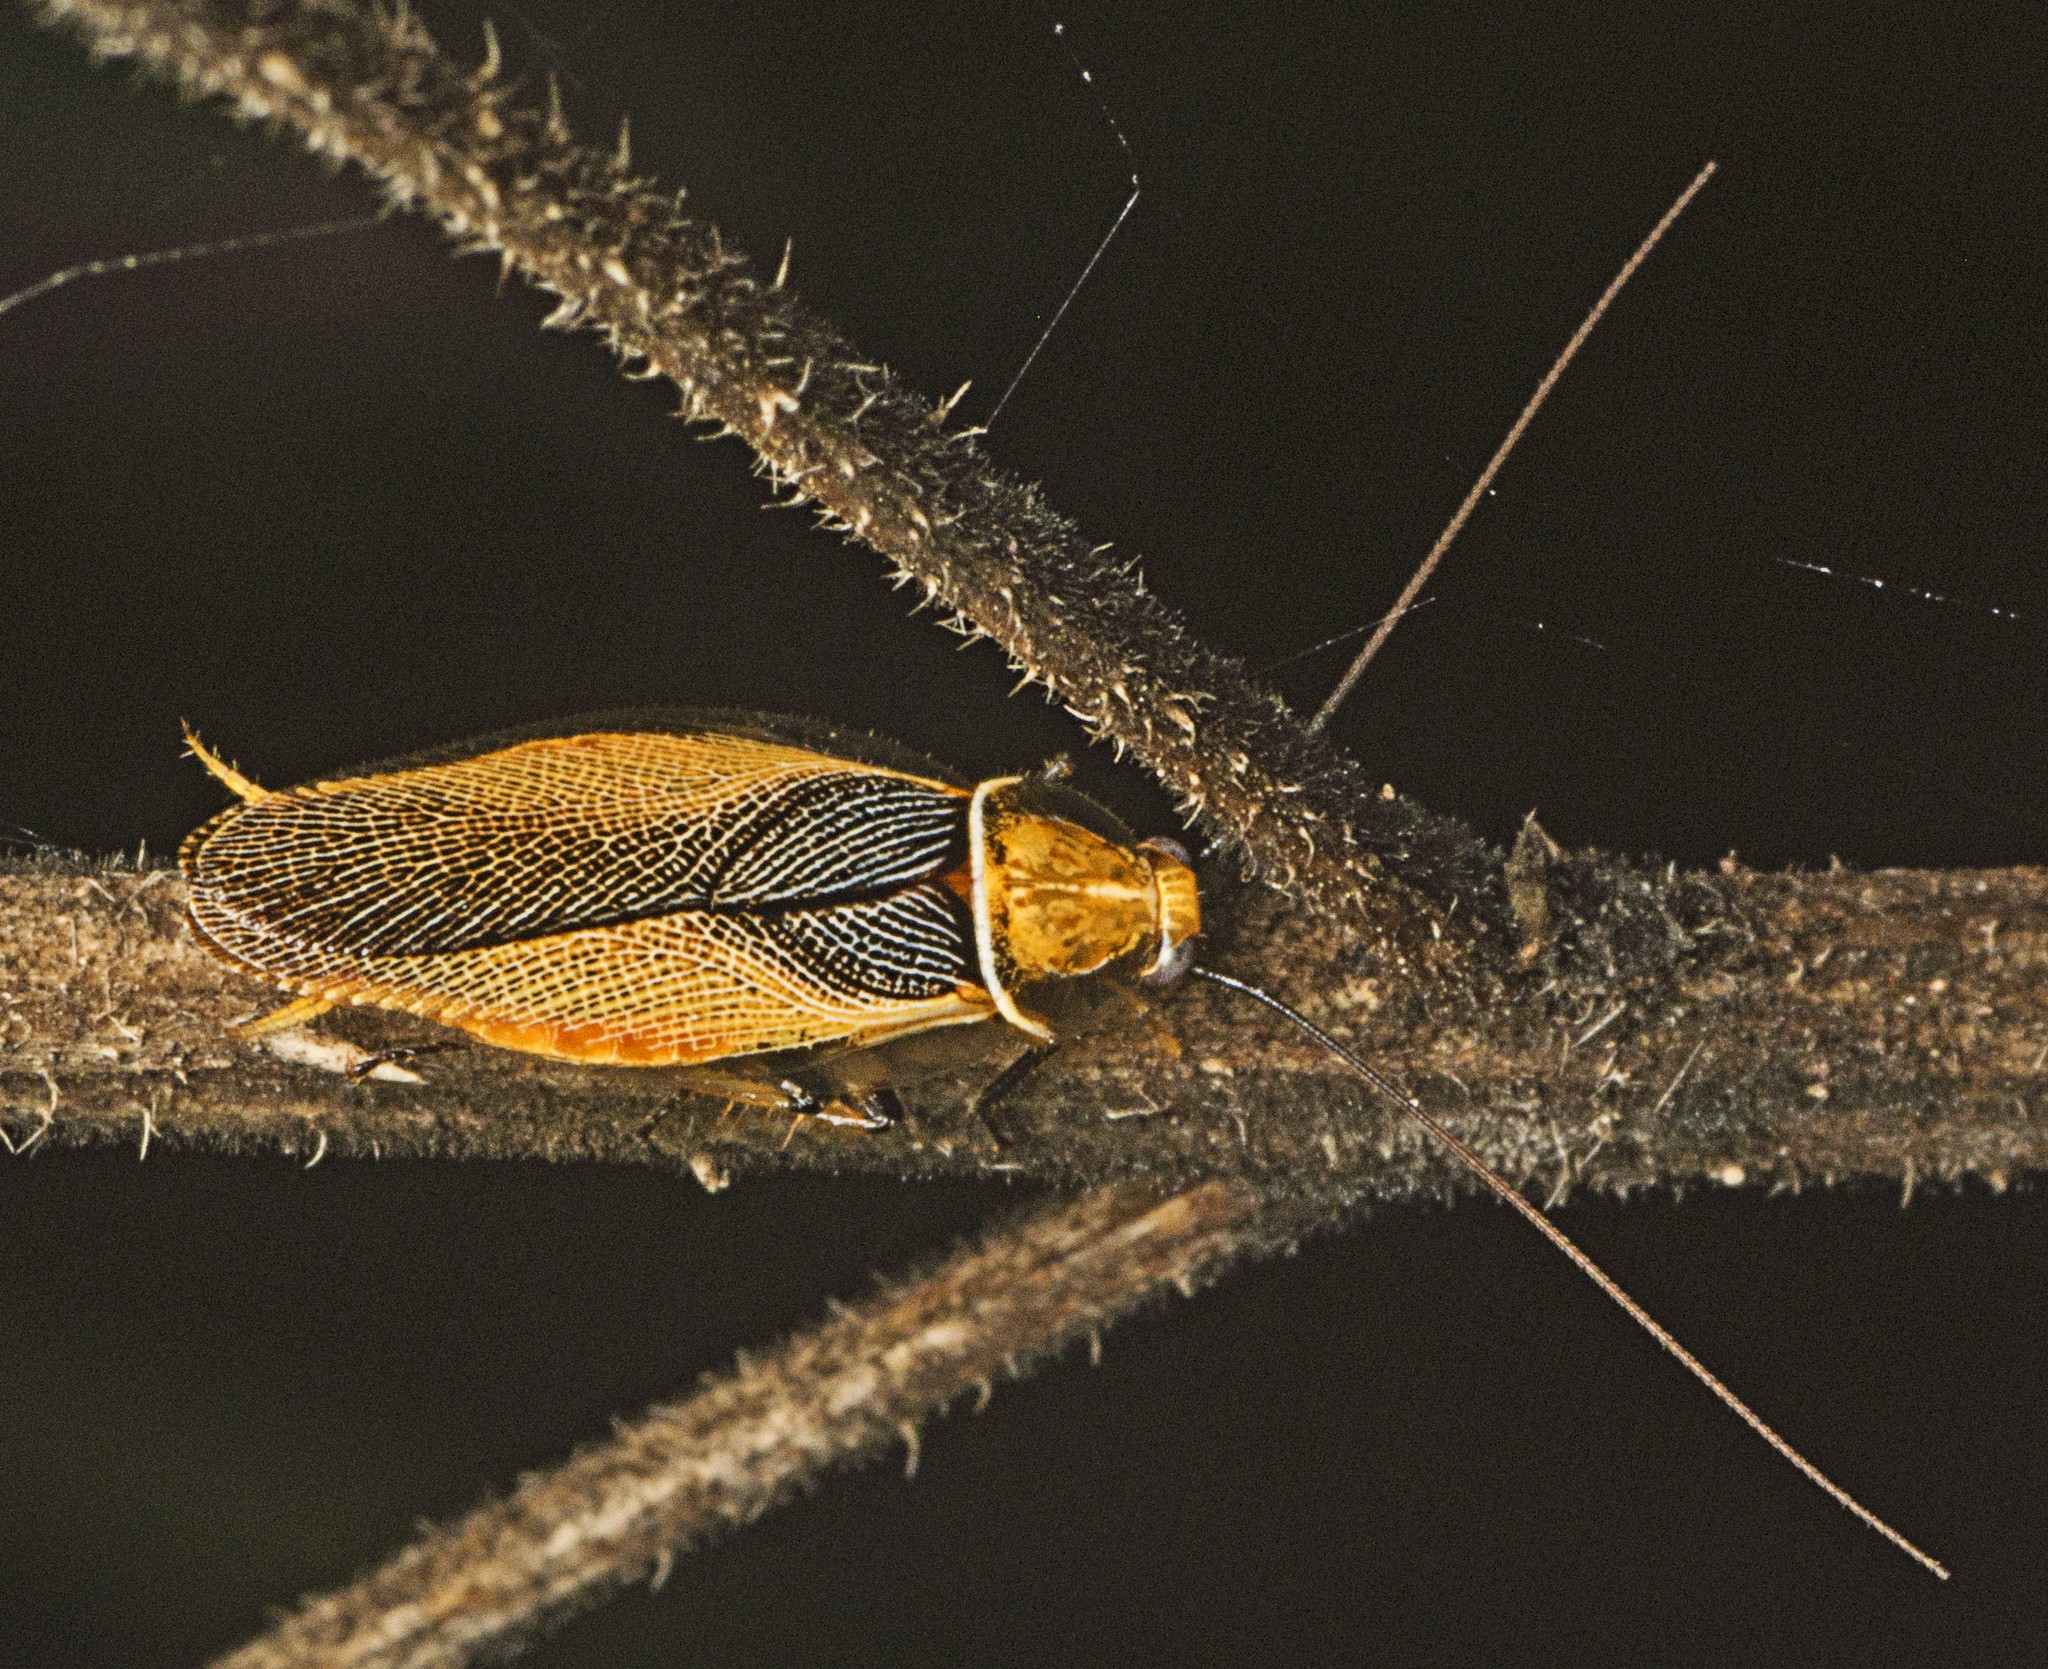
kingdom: Animalia
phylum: Arthropoda
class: Insecta
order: Blattodea
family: Ectobiidae
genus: Ellipsidion
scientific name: Ellipsidion bicolor
